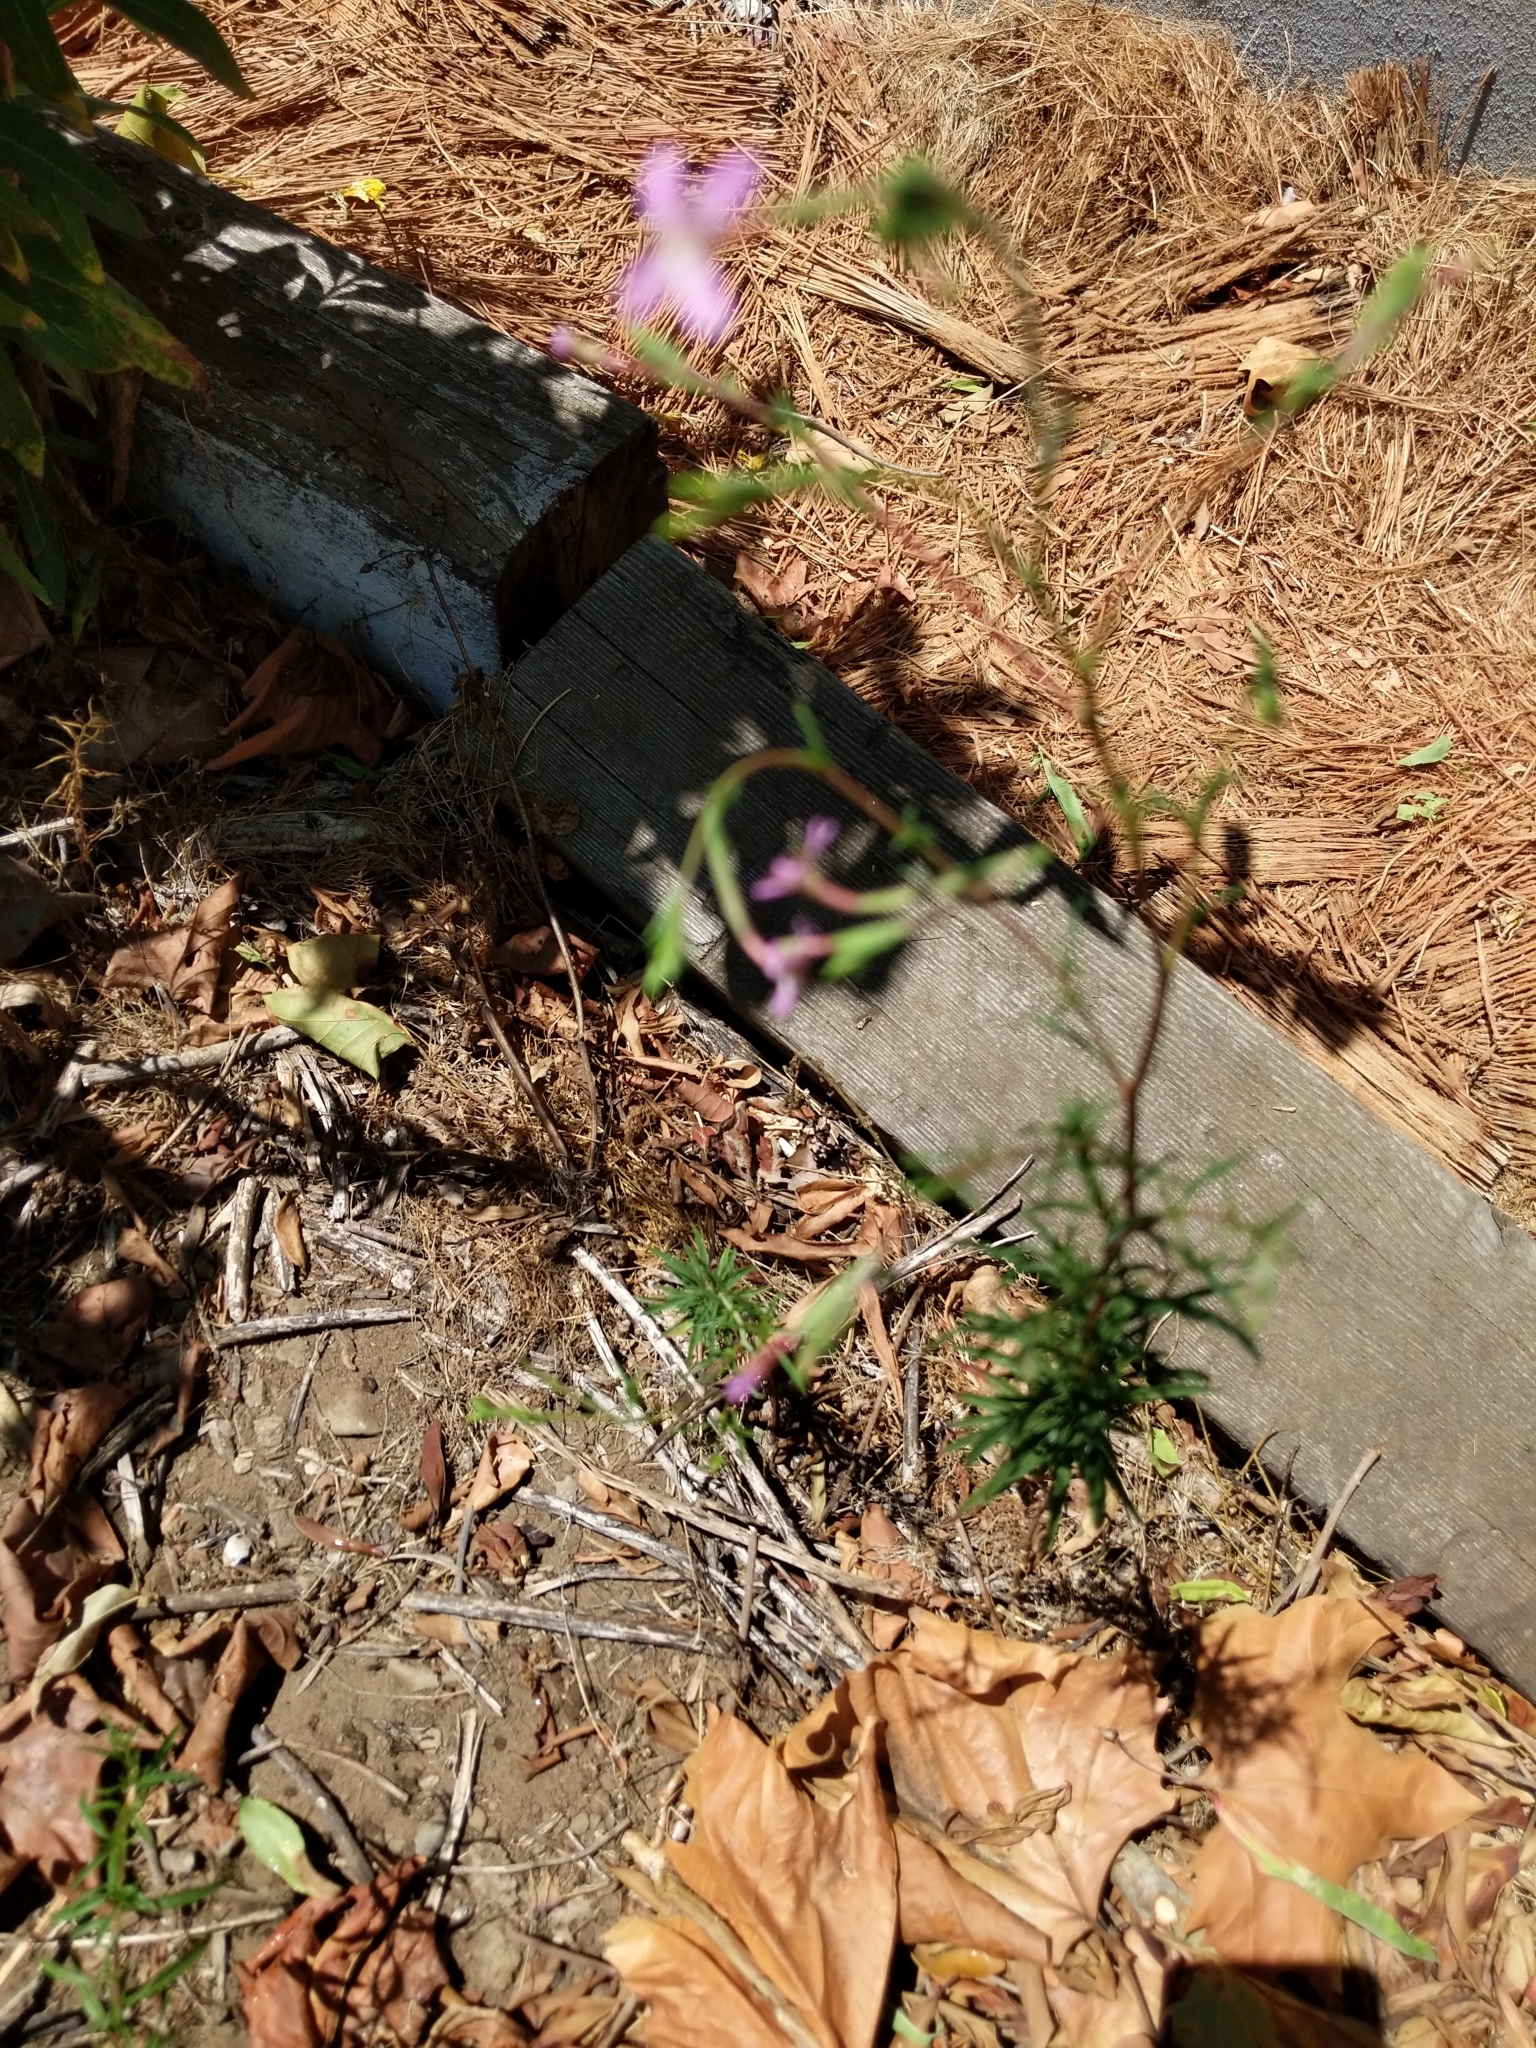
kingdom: Plantae
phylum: Tracheophyta
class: Magnoliopsida
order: Myrtales
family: Onagraceae
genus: Epilobium
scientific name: Epilobium brachycarpum
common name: Annual willowherb
